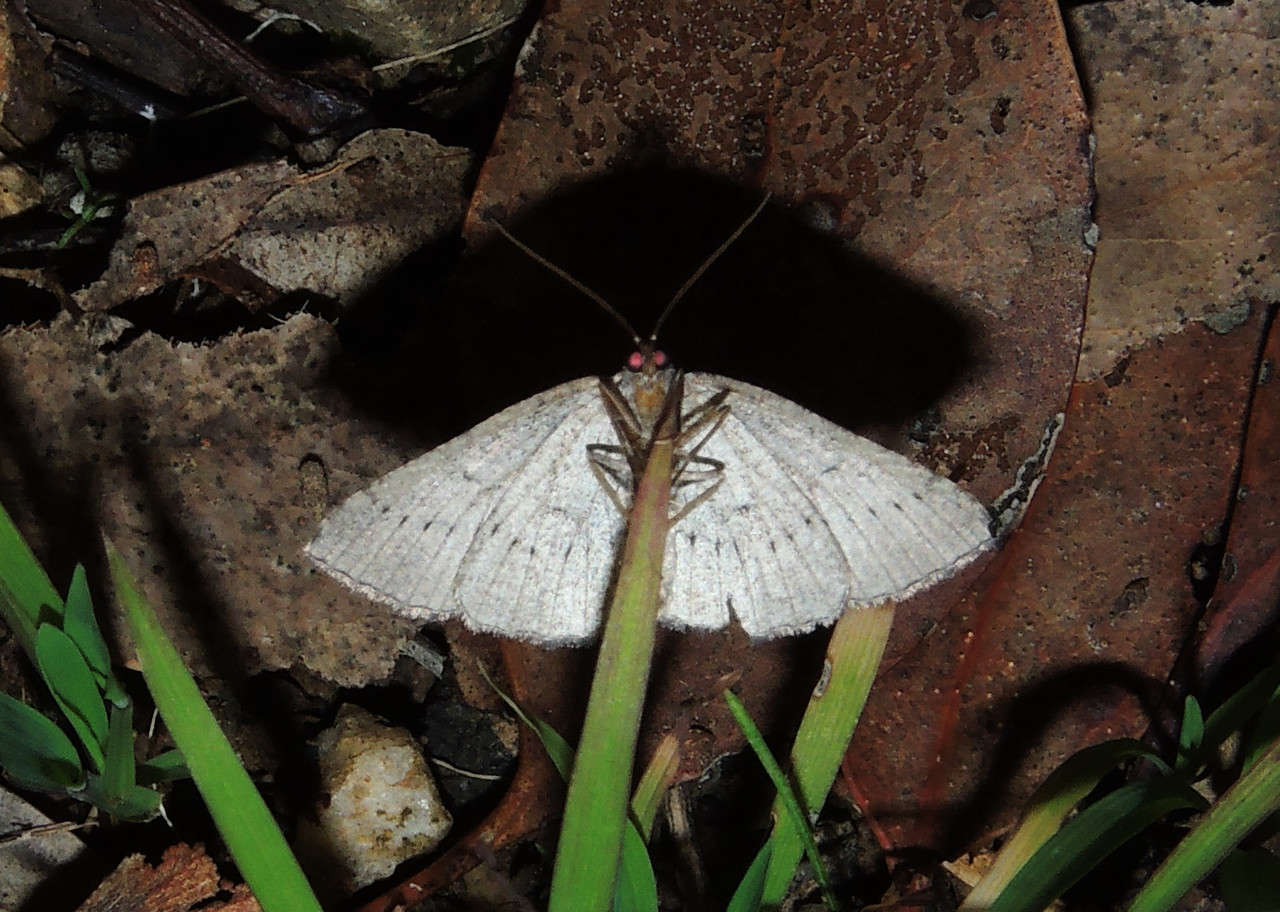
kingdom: Animalia
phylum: Arthropoda
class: Insecta
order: Lepidoptera
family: Geometridae
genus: Aphantes
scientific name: Aphantes melanochorda
